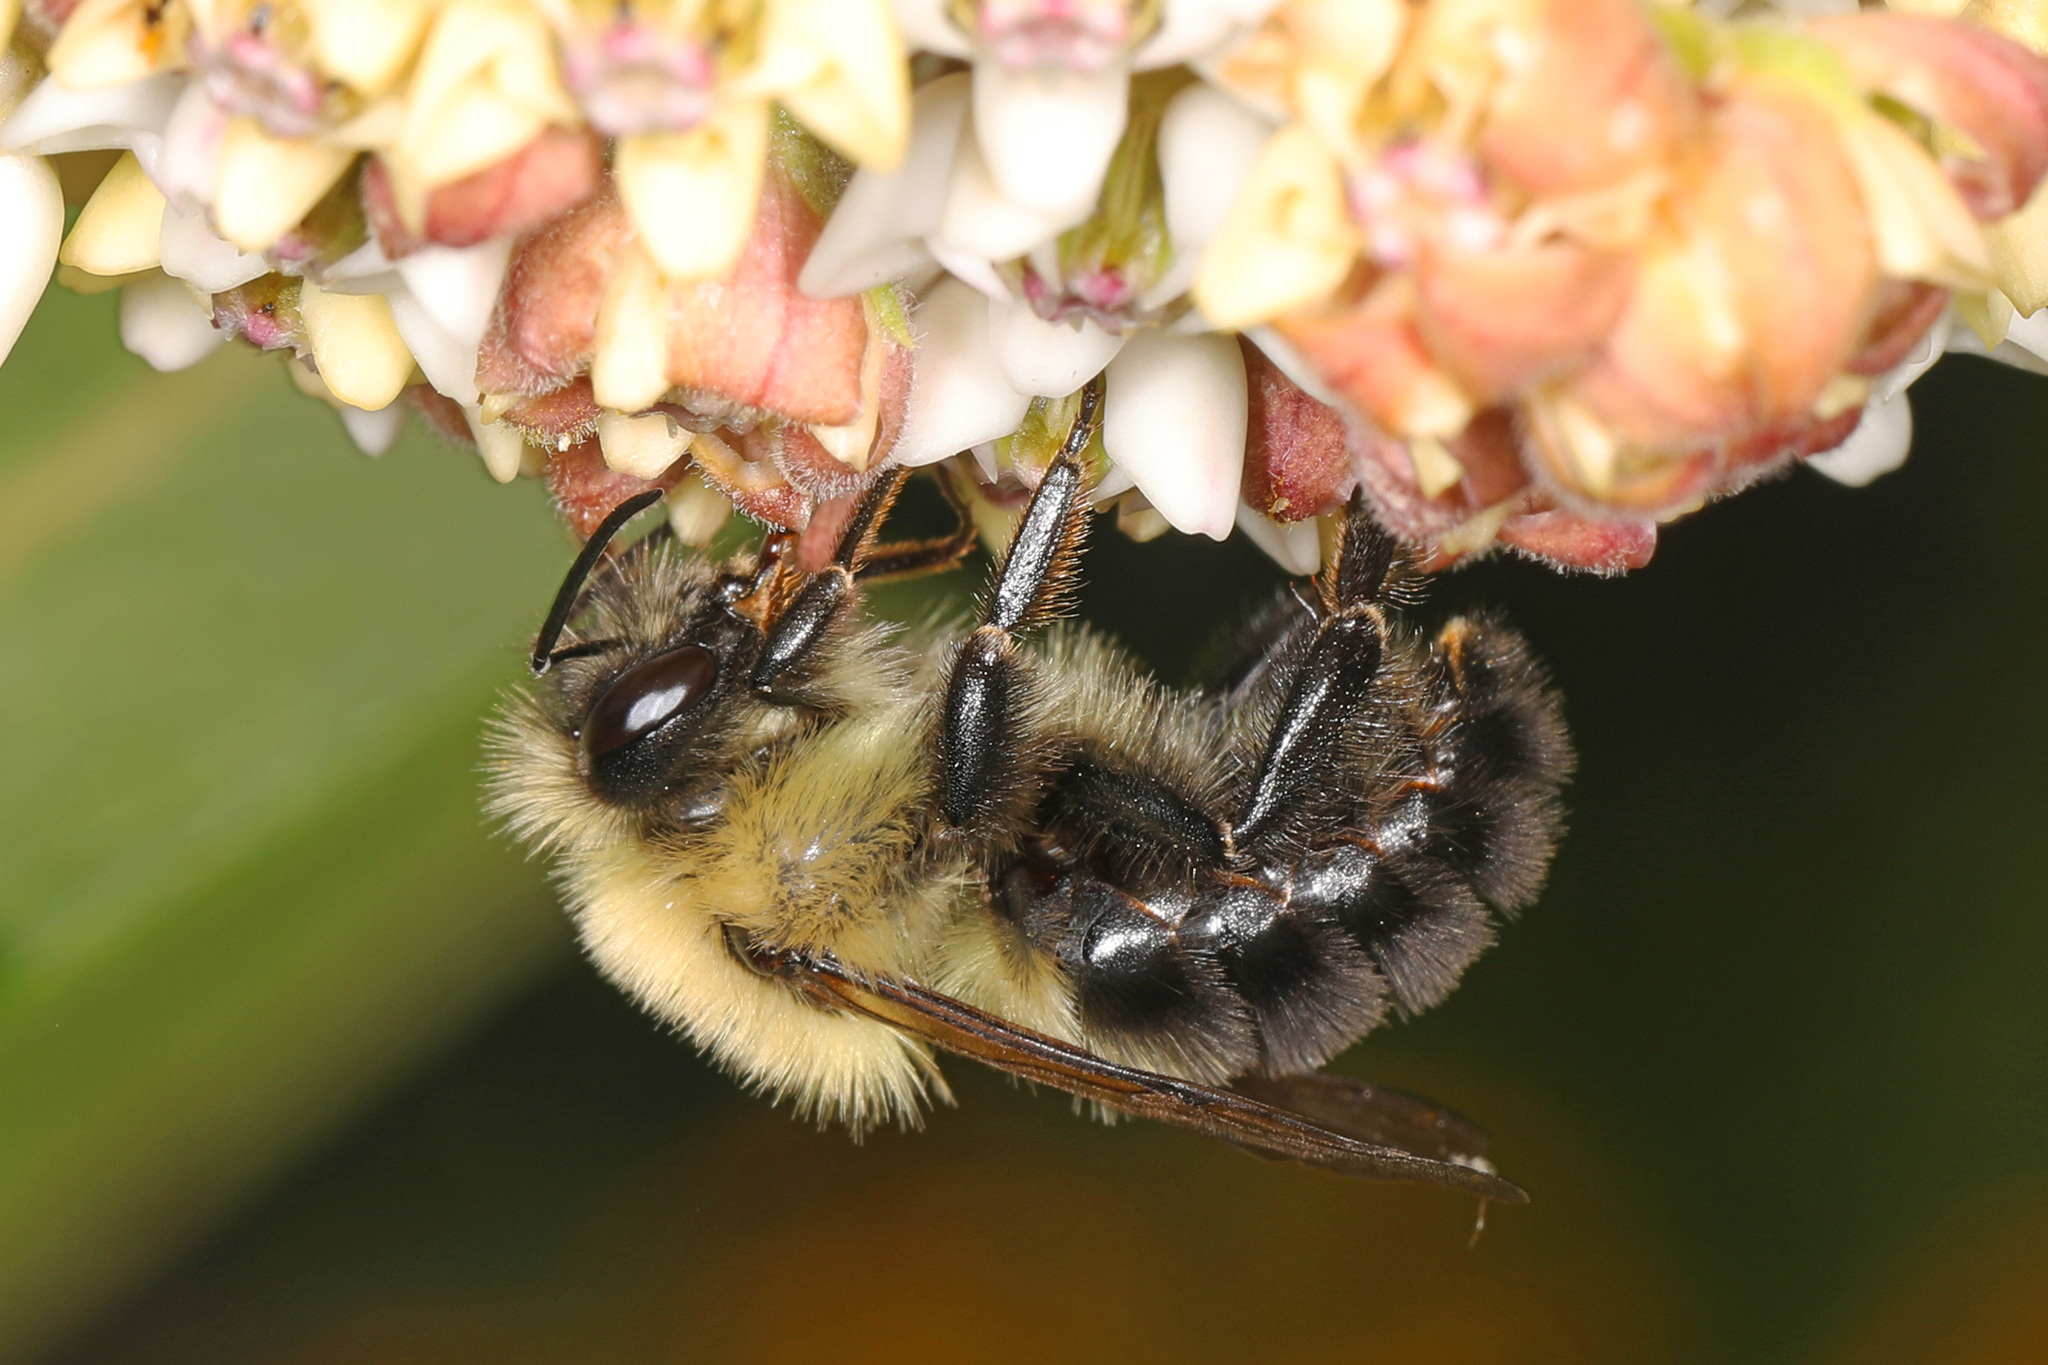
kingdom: Animalia
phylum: Arthropoda
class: Insecta
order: Hymenoptera
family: Apidae
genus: Bombus
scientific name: Bombus bimaculatus
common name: Two-spotted bumble bee
